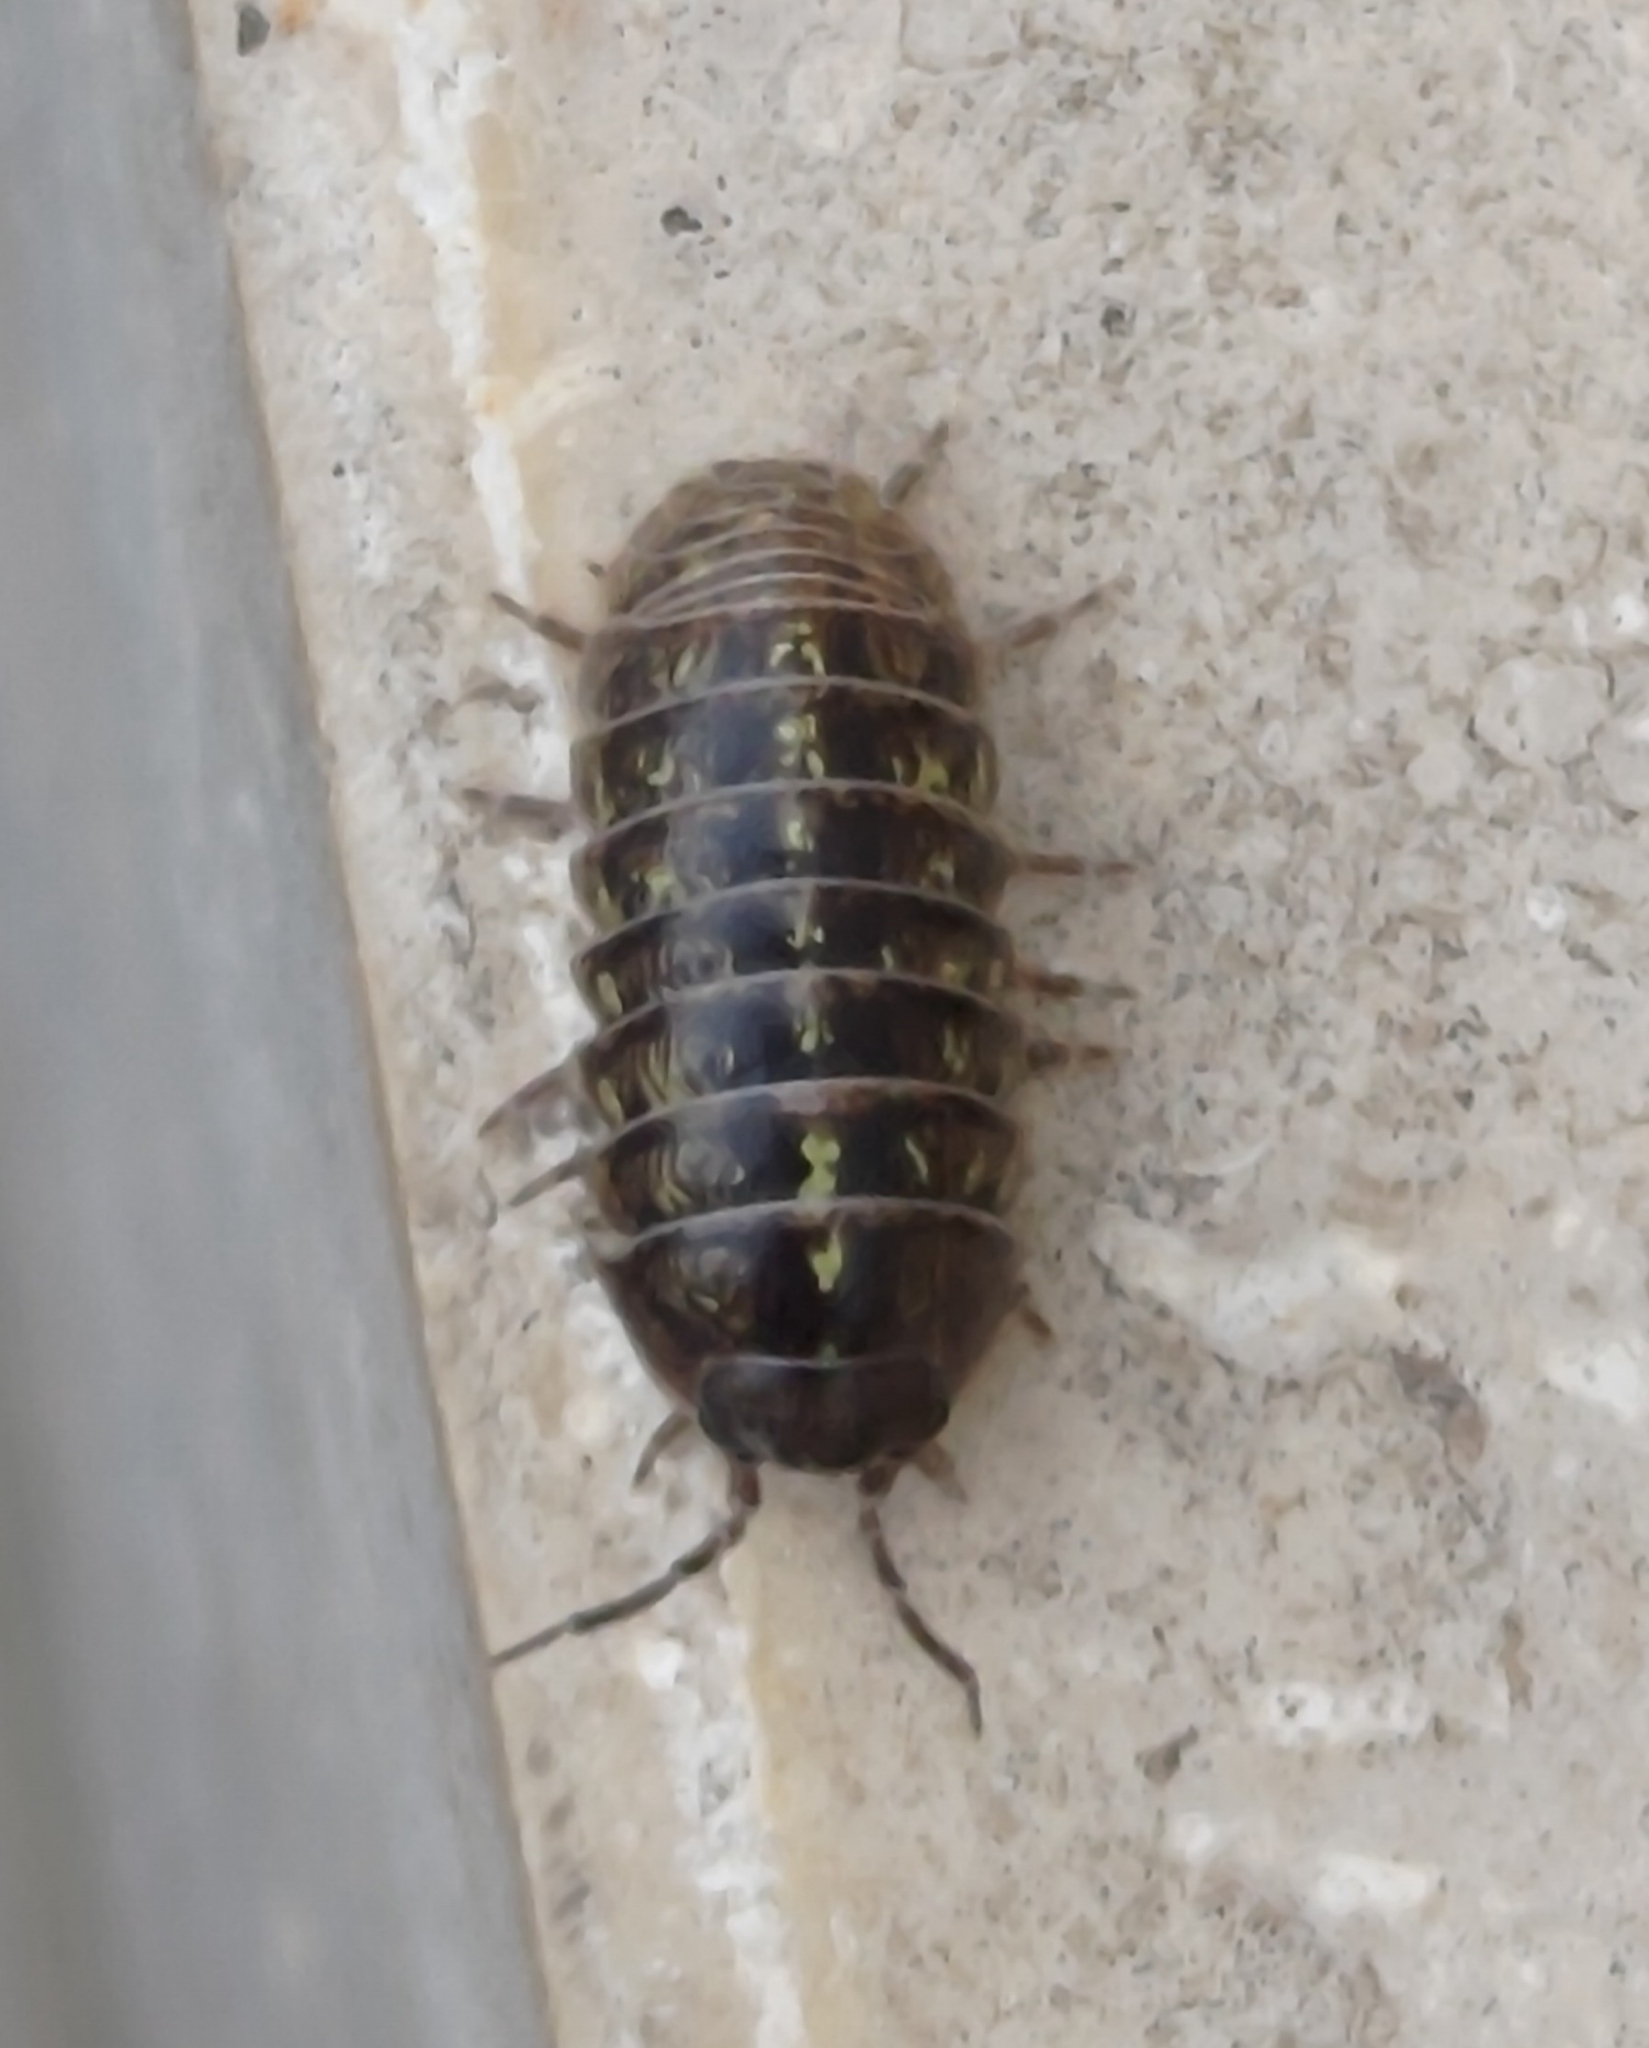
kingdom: Animalia
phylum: Arthropoda
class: Malacostraca
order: Isopoda
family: Armadillidiidae
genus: Armadillidium
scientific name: Armadillidium vulgare
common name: Common pill woodlouse
